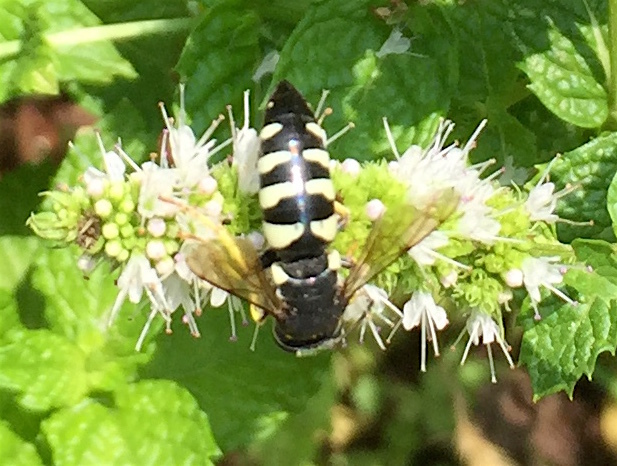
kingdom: Animalia
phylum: Arthropoda
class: Insecta
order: Hymenoptera
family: Crabronidae
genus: Bicyrtes
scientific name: Bicyrtes quadrifasciatus
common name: Four-banded stink bug hunter wasp
